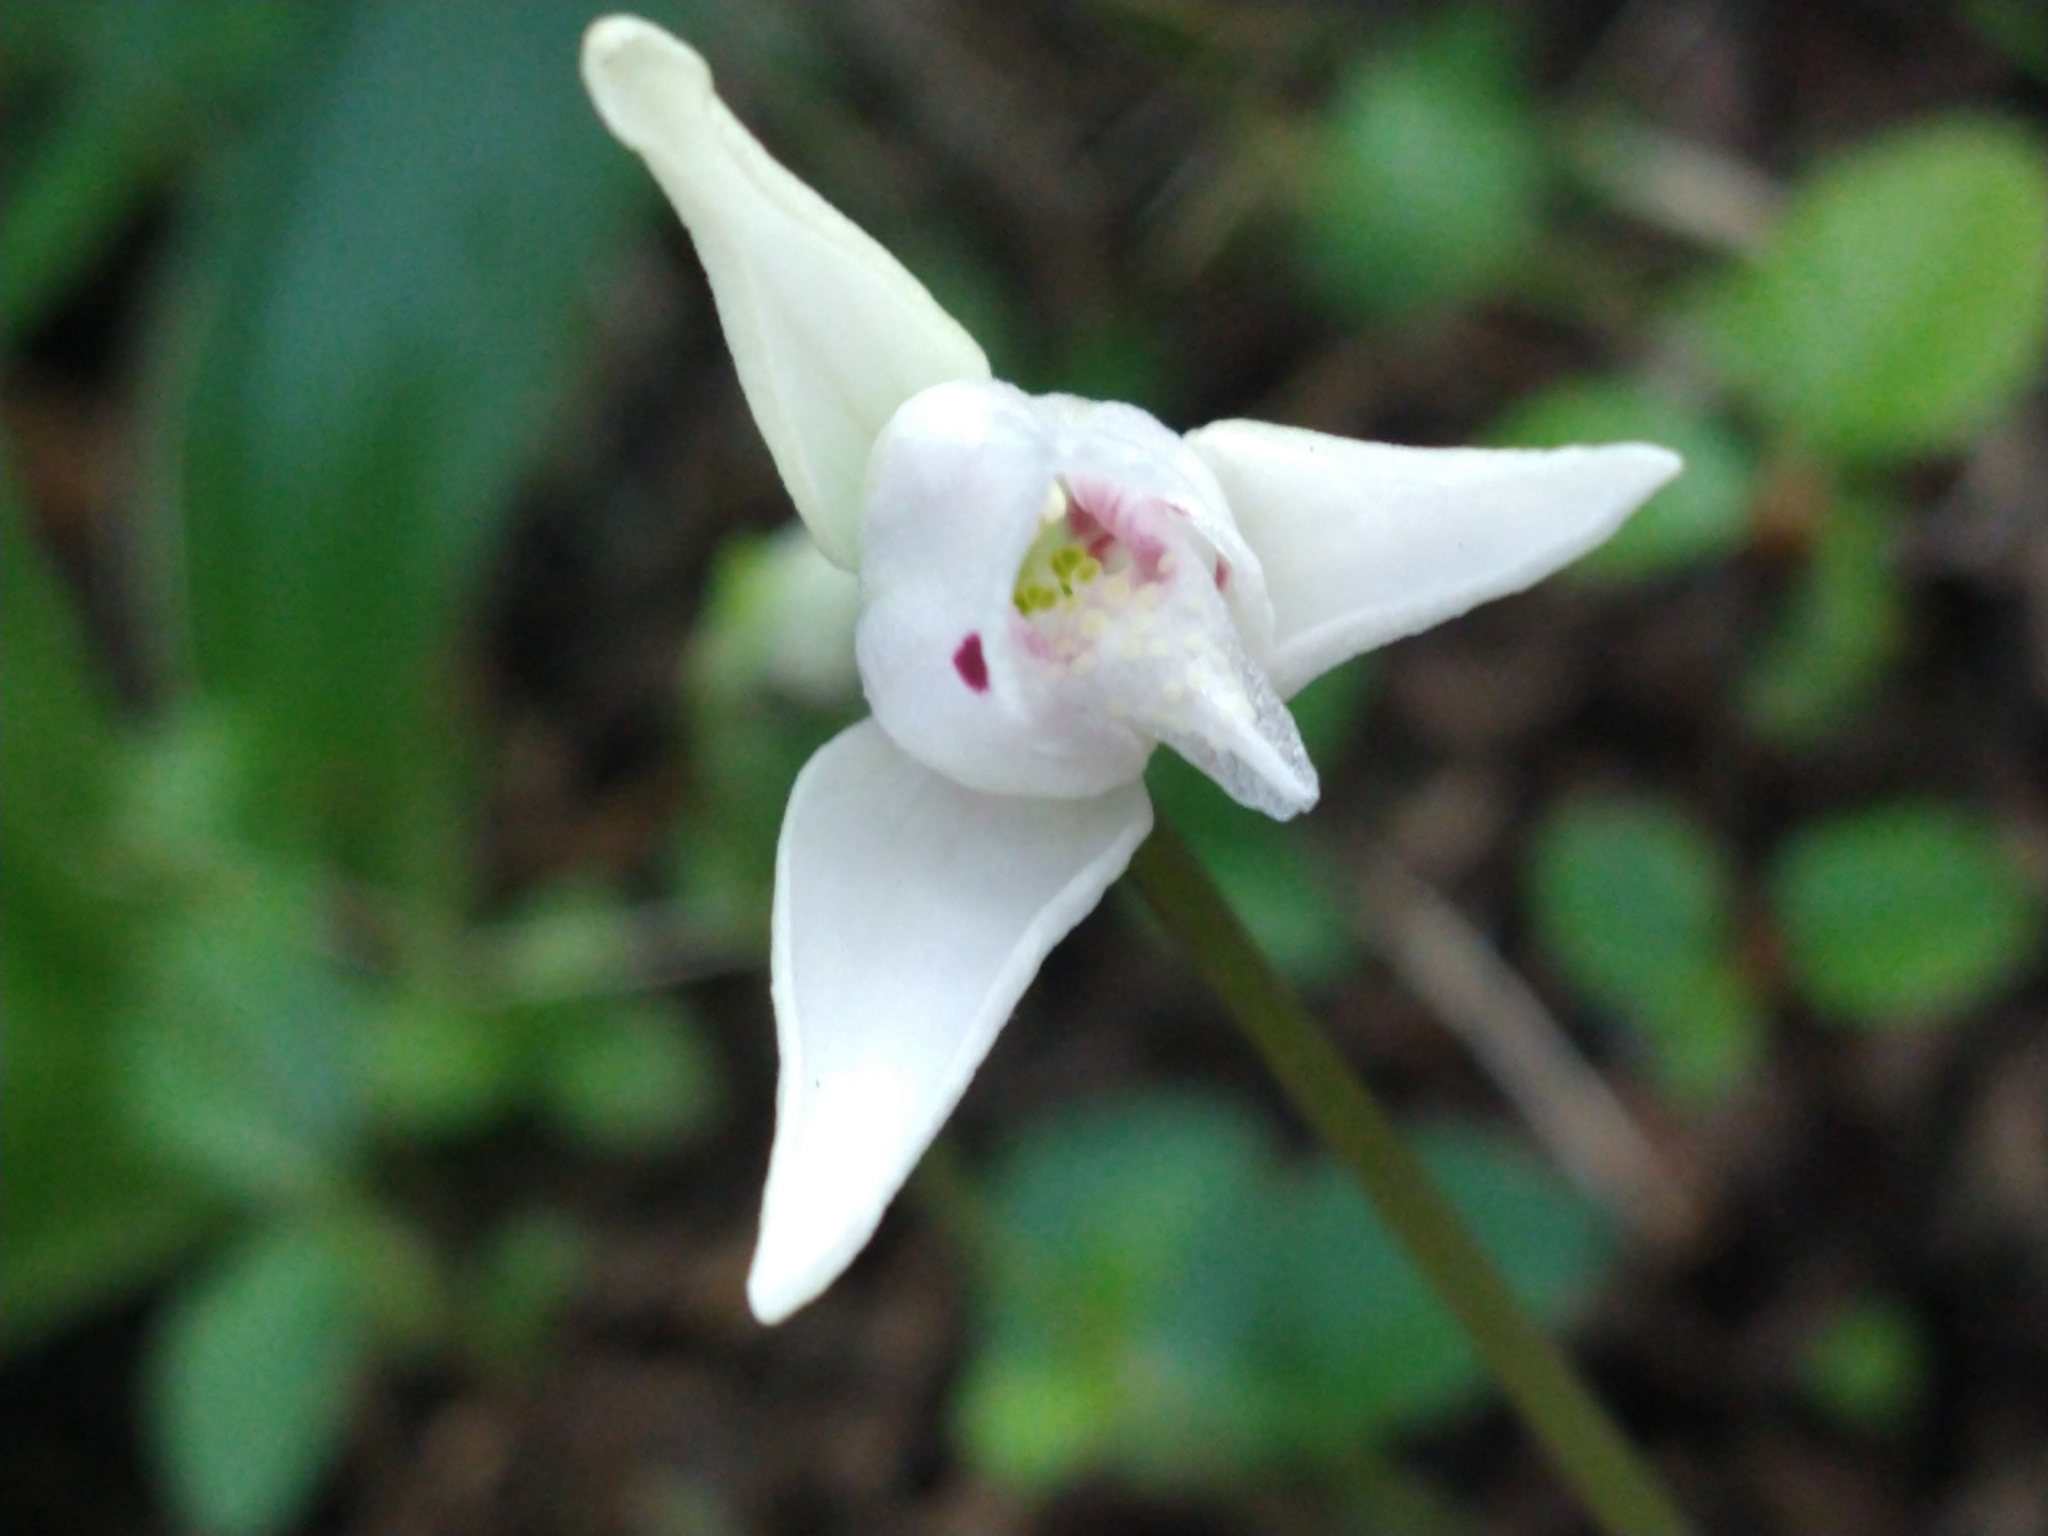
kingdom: Plantae
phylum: Tracheophyta
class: Liliopsida
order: Asparagales
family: Orchidaceae
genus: Codonorchis
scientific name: Codonorchis lessonii
